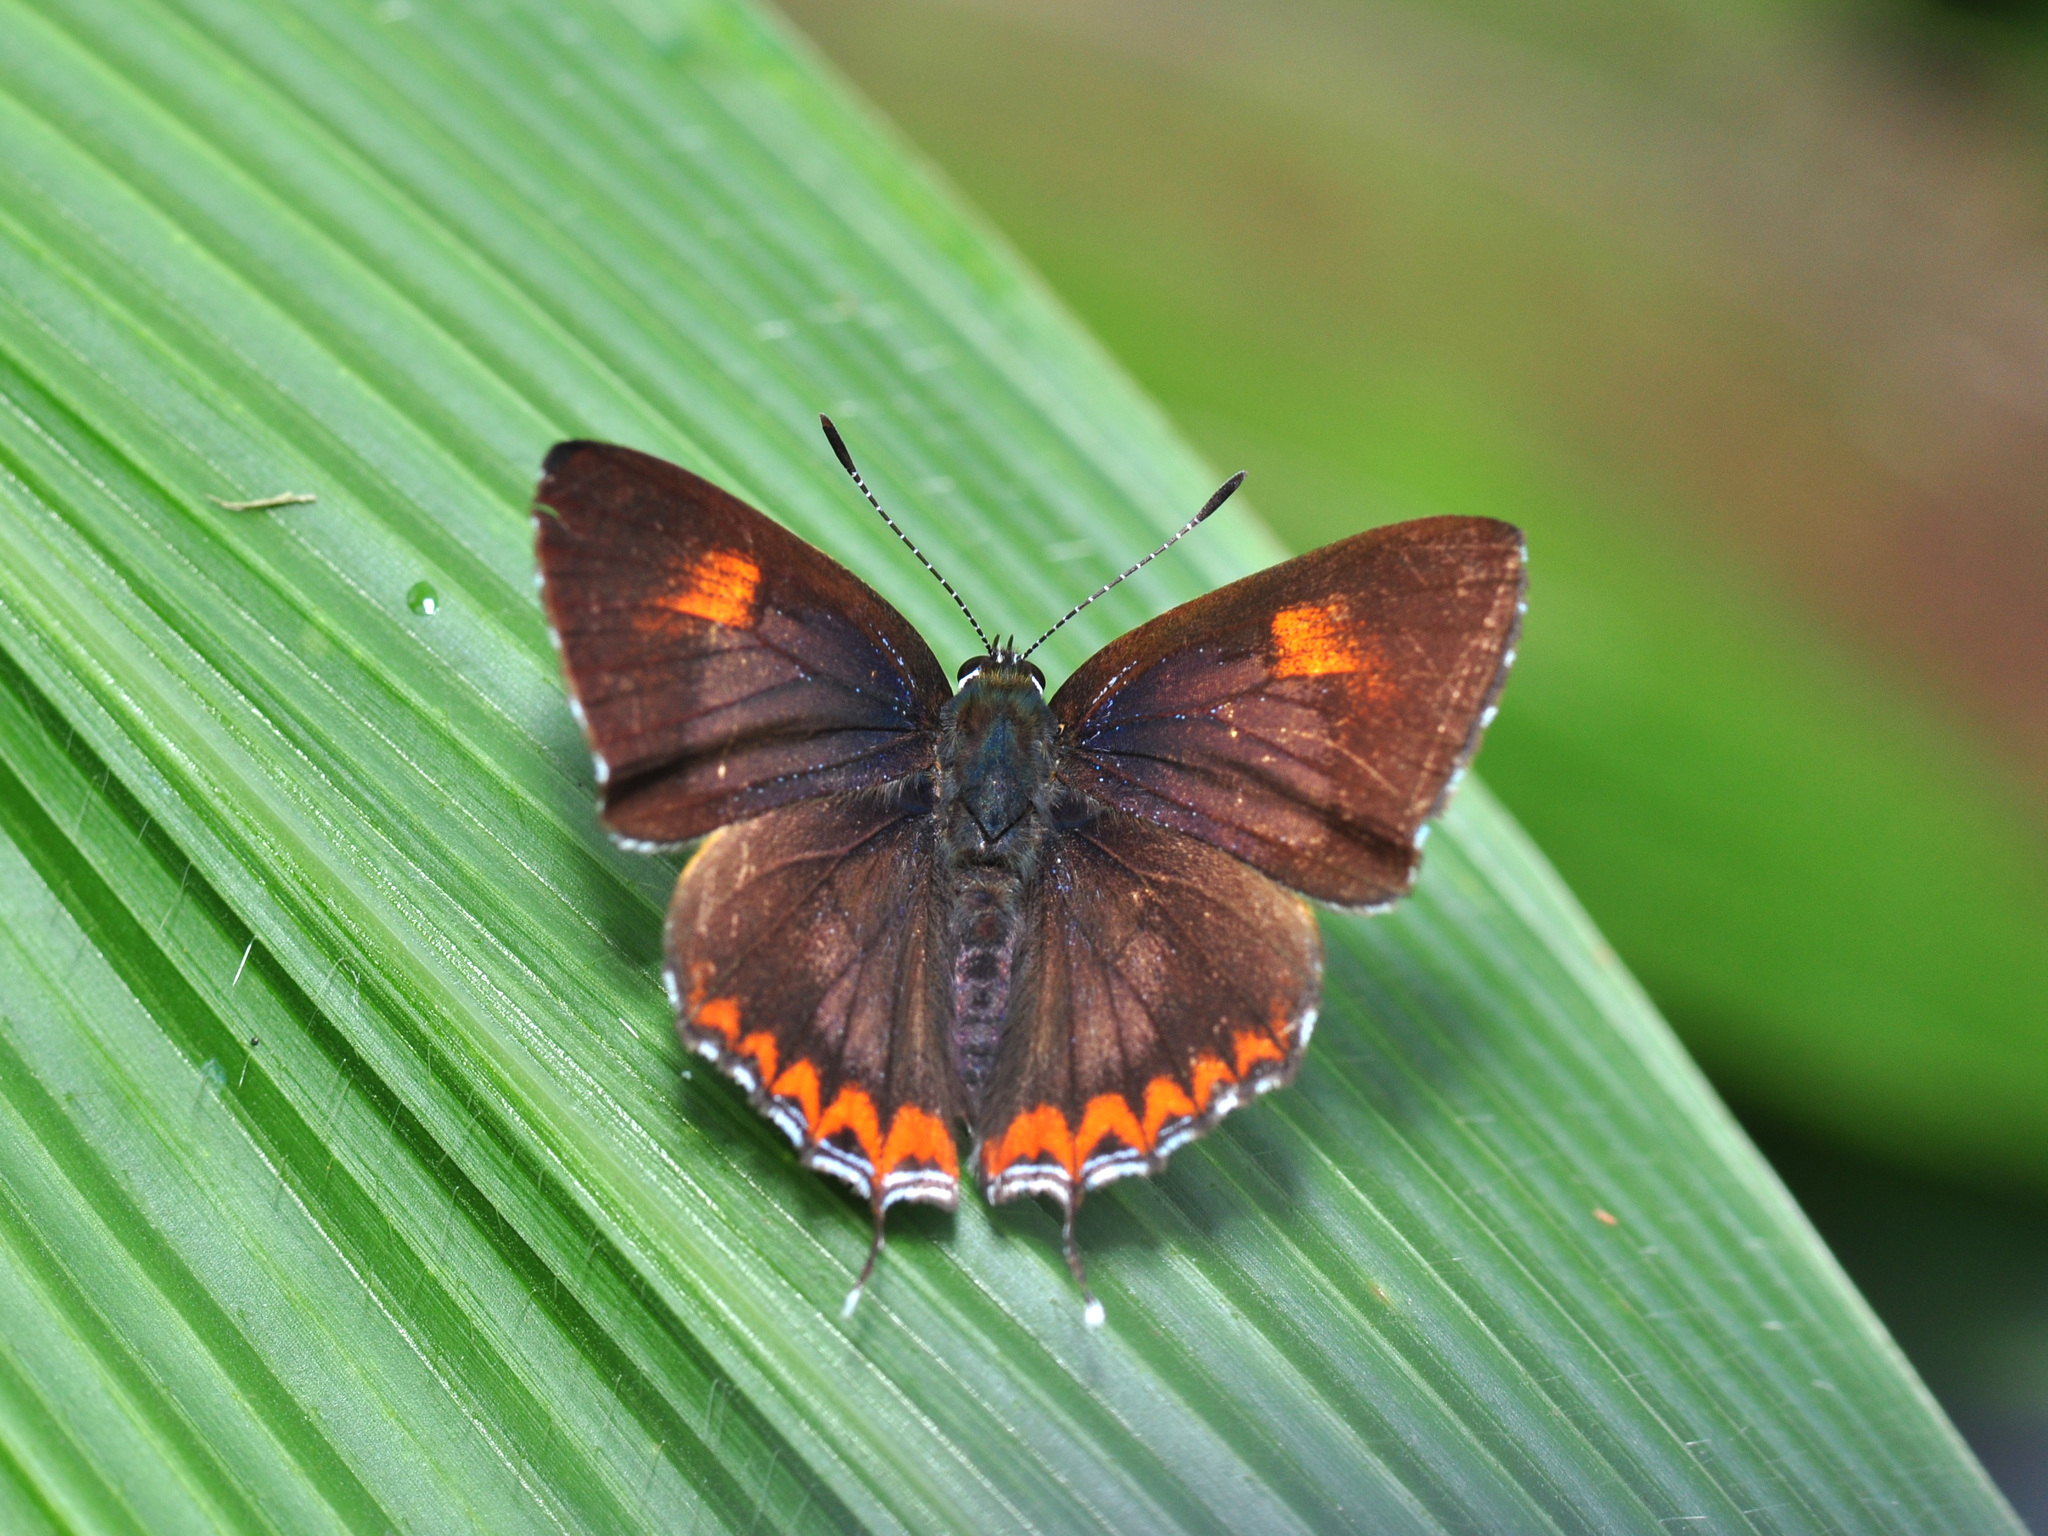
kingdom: Animalia
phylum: Arthropoda
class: Insecta
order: Lepidoptera
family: Lycaenidae
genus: Heliophorus
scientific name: Heliophorus epicles
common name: Purple sapphire
